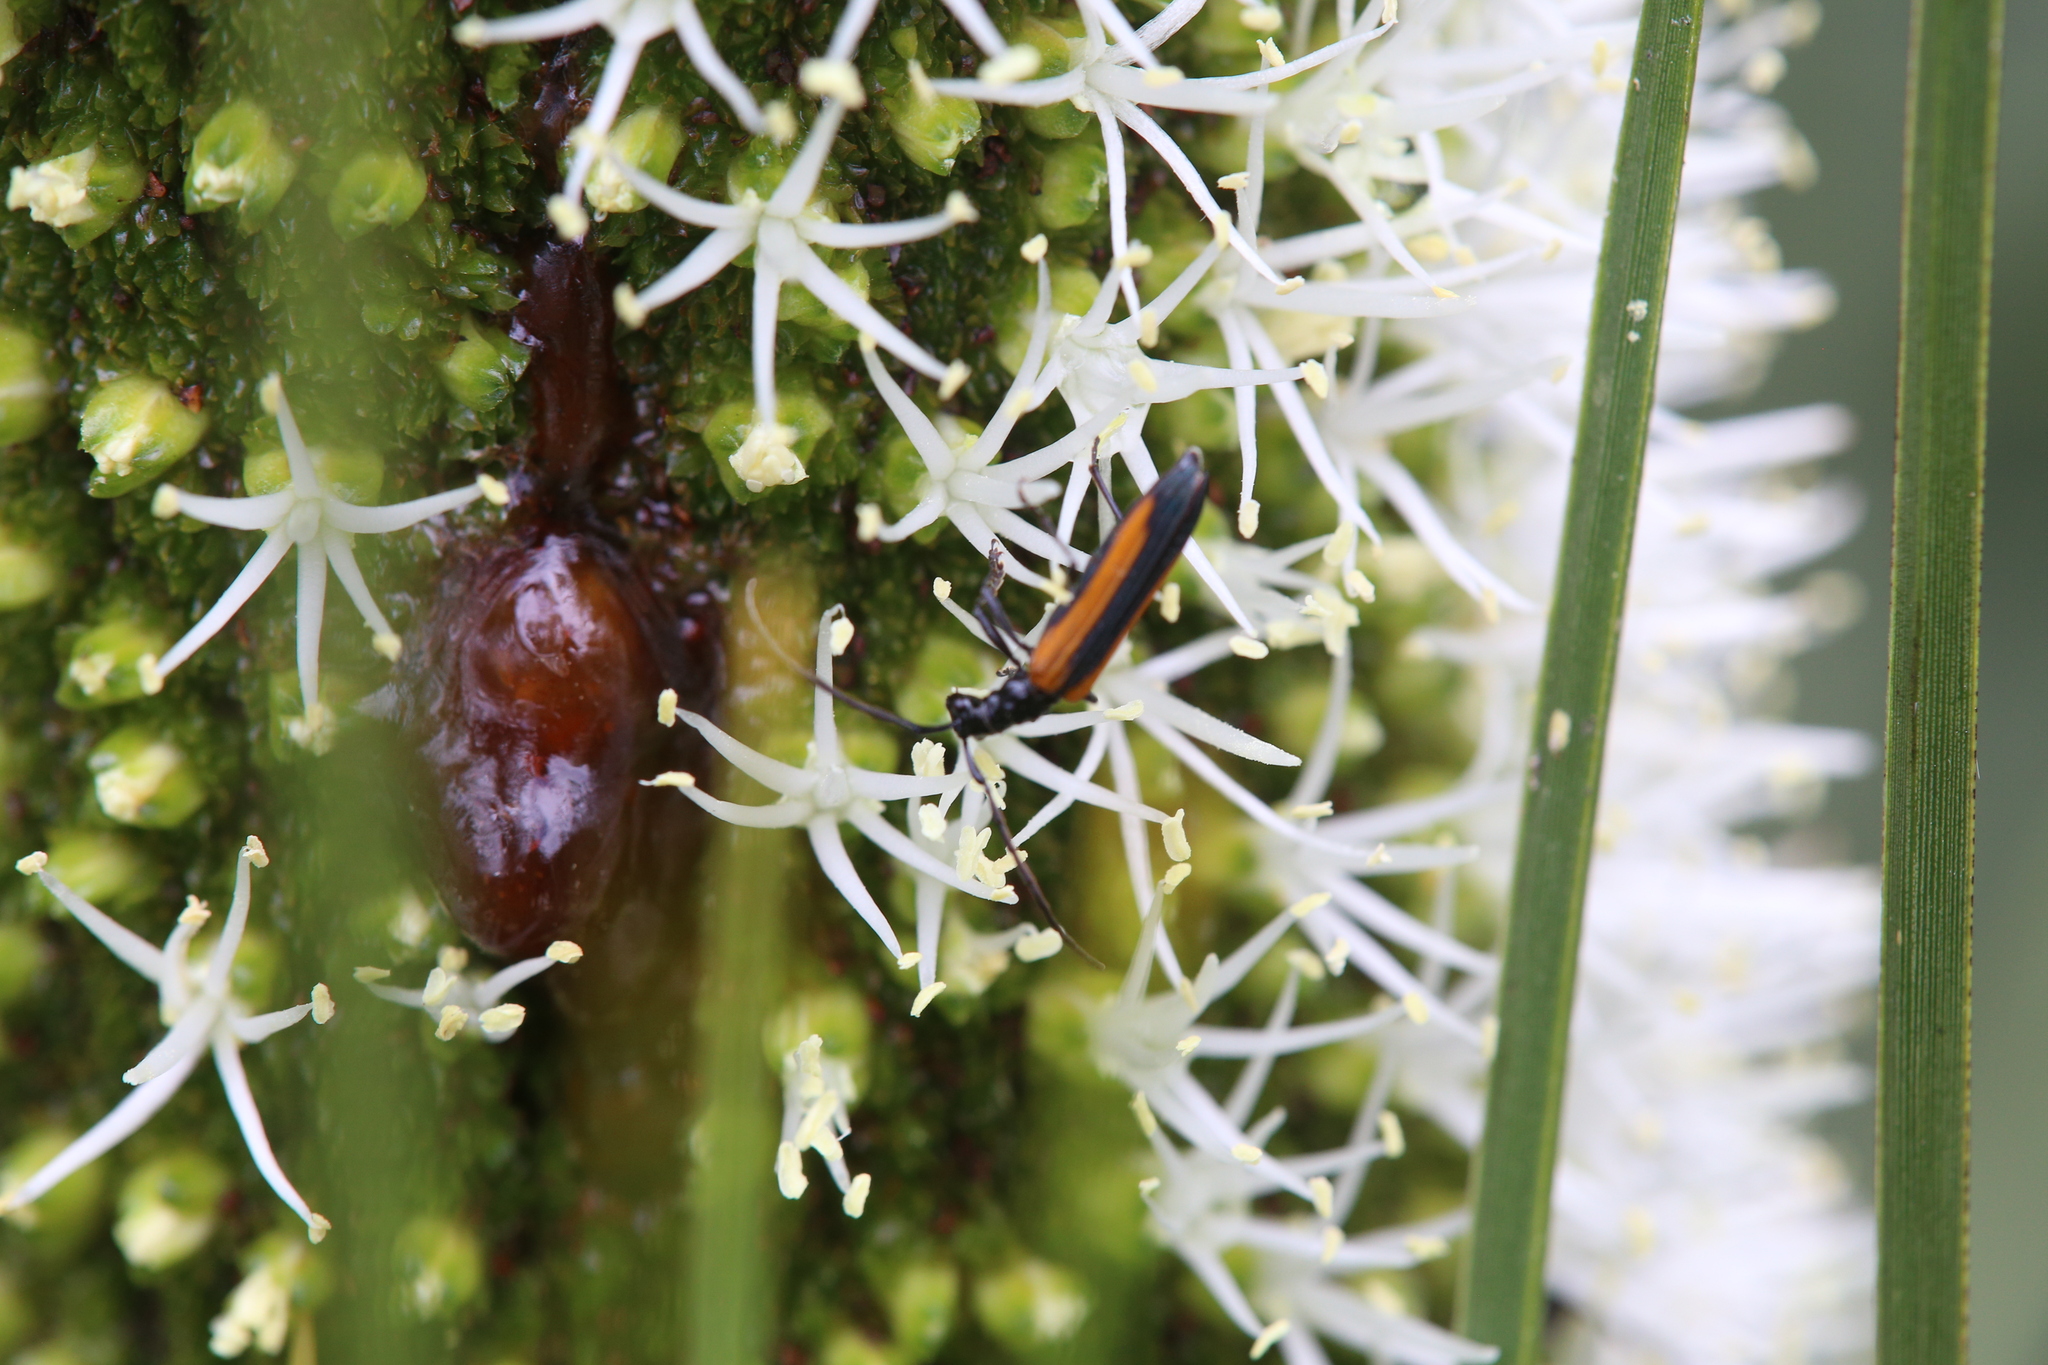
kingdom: Animalia
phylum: Arthropoda
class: Insecta
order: Coleoptera
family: Cerambycidae
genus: Stenoderus
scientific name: Stenoderus suturalis
